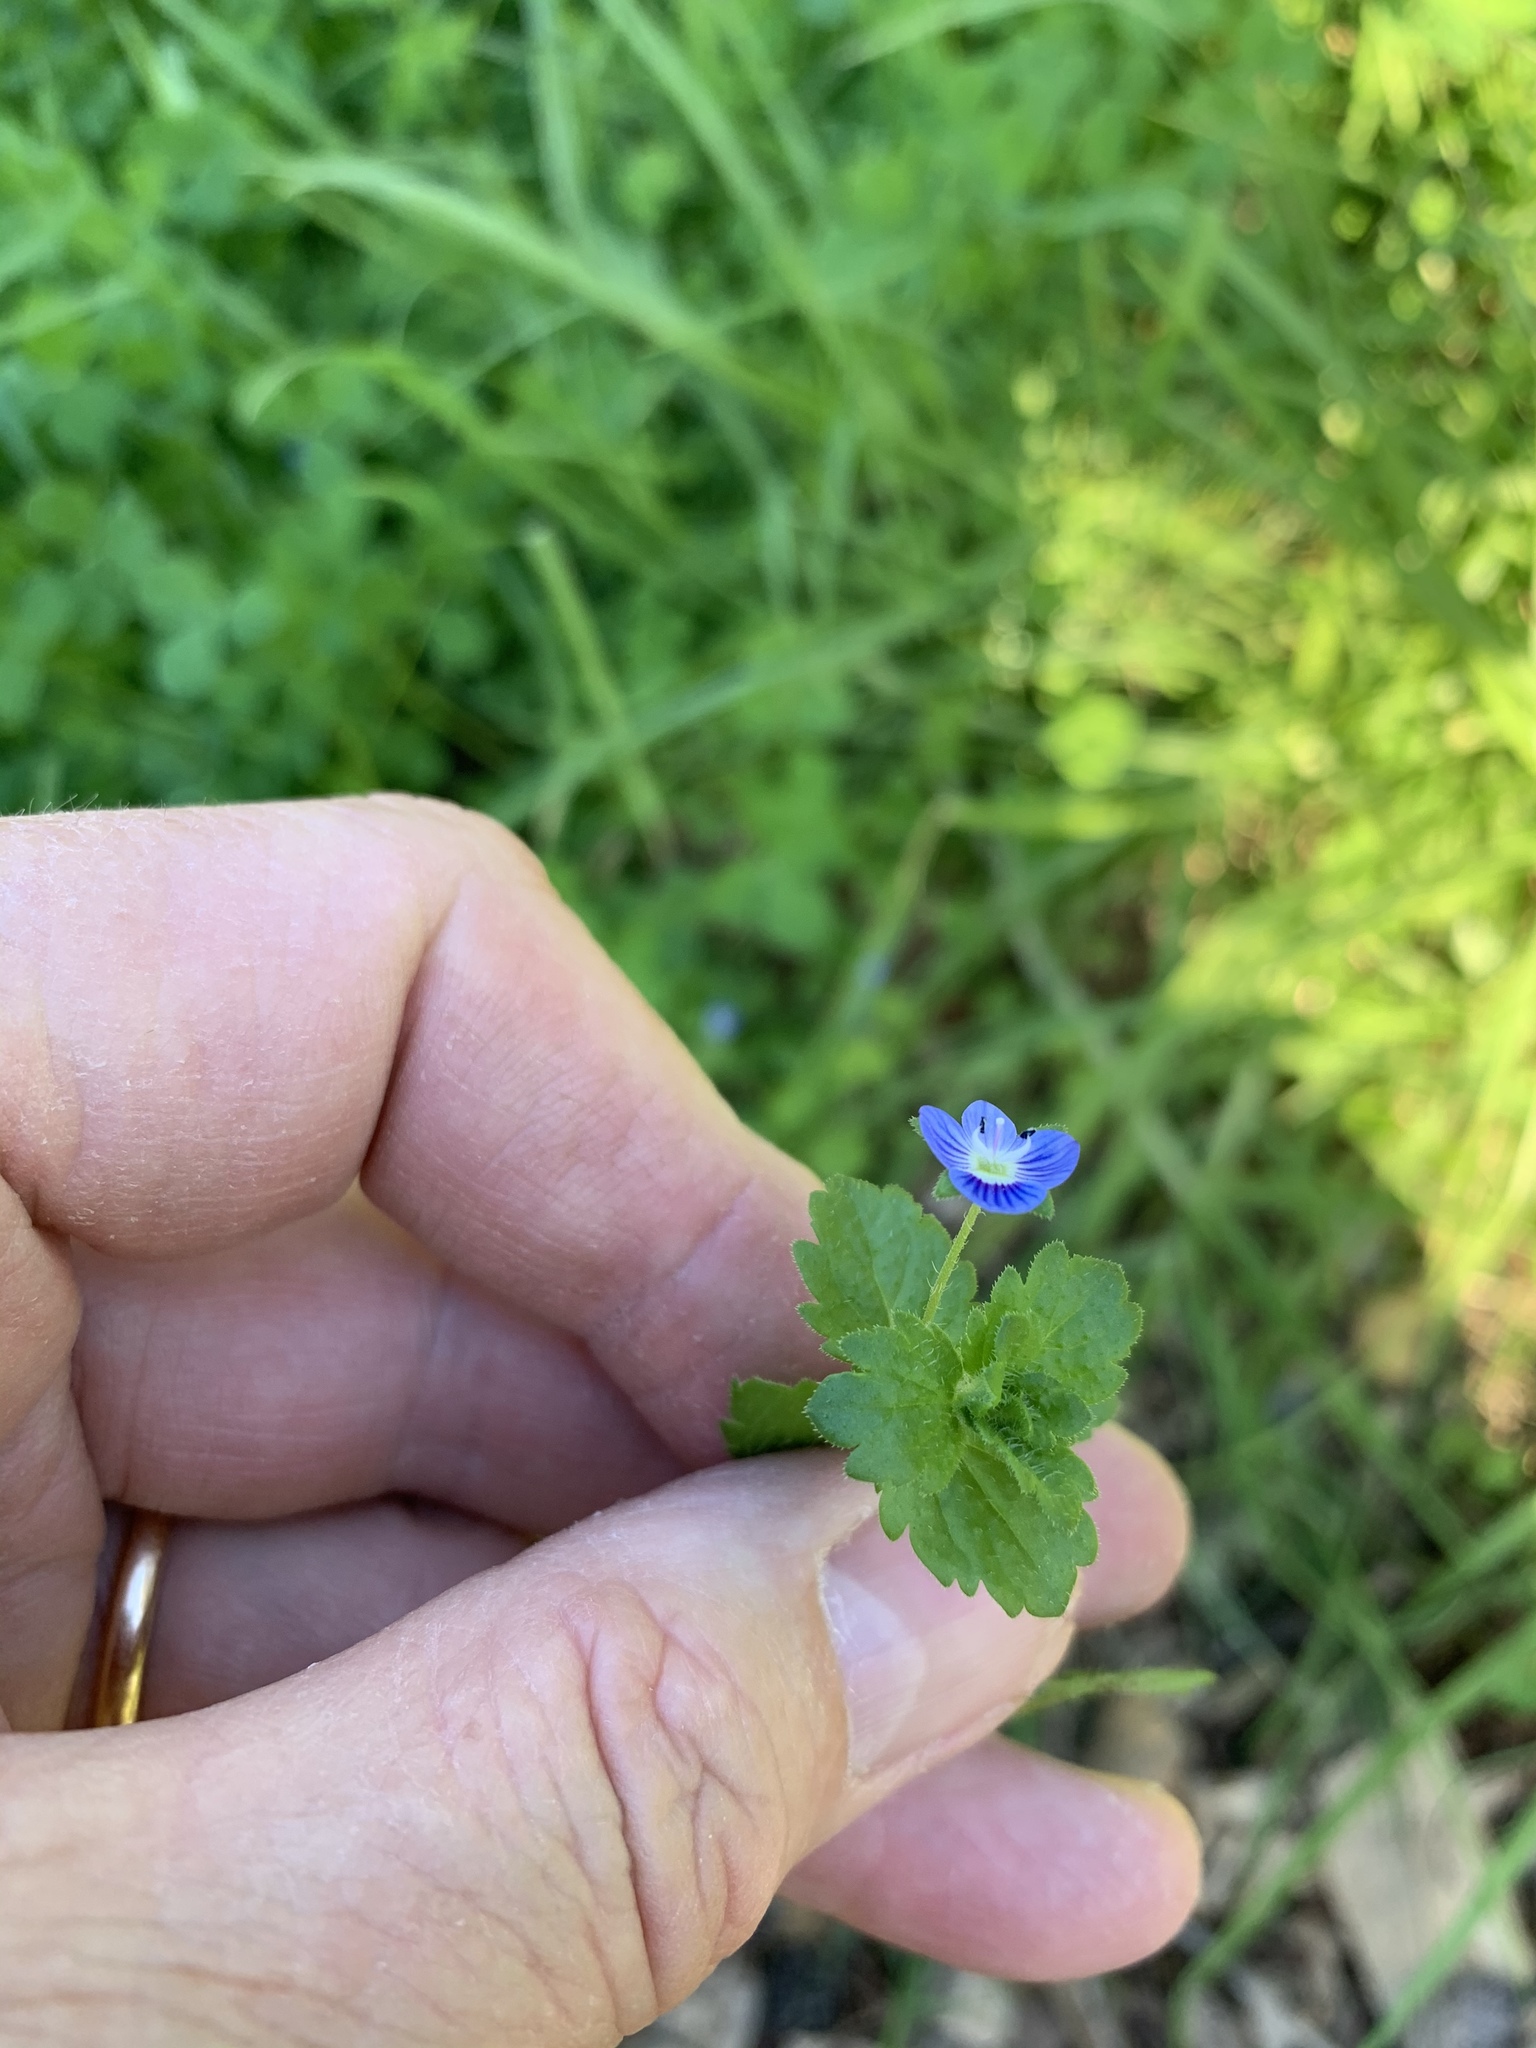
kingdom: Plantae
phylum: Tracheophyta
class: Magnoliopsida
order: Lamiales
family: Plantaginaceae
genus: Veronica
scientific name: Veronica persica
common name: Common field-speedwell
